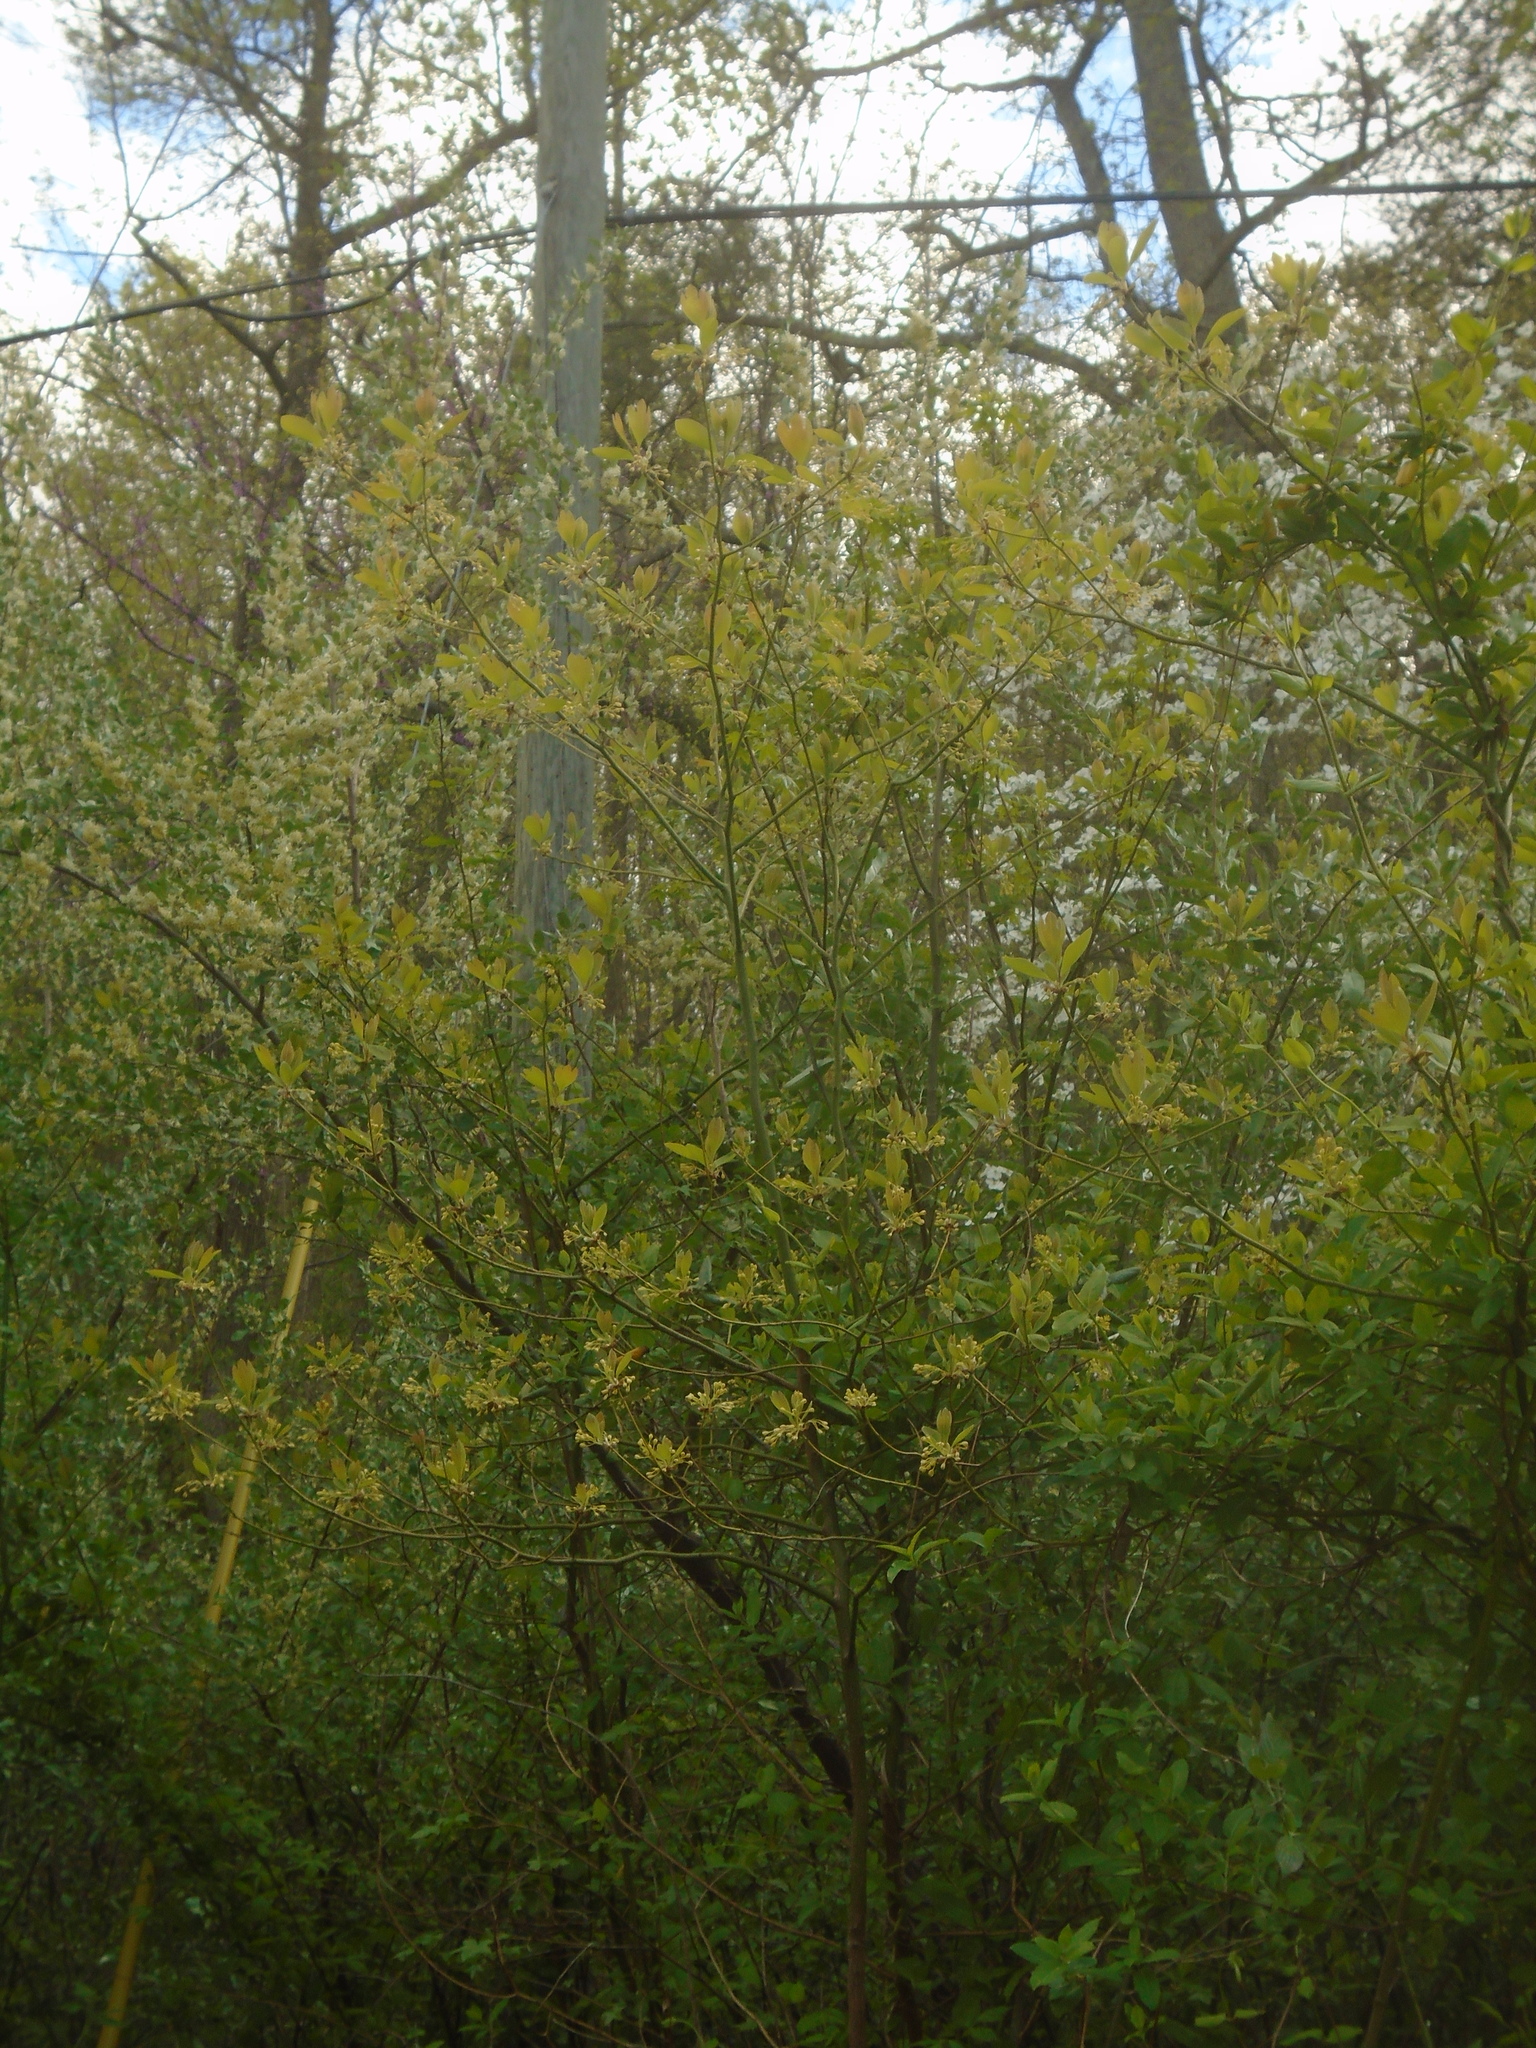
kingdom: Plantae
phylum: Tracheophyta
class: Magnoliopsida
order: Laurales
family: Lauraceae
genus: Sassafras
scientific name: Sassafras albidum
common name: Sassafras
